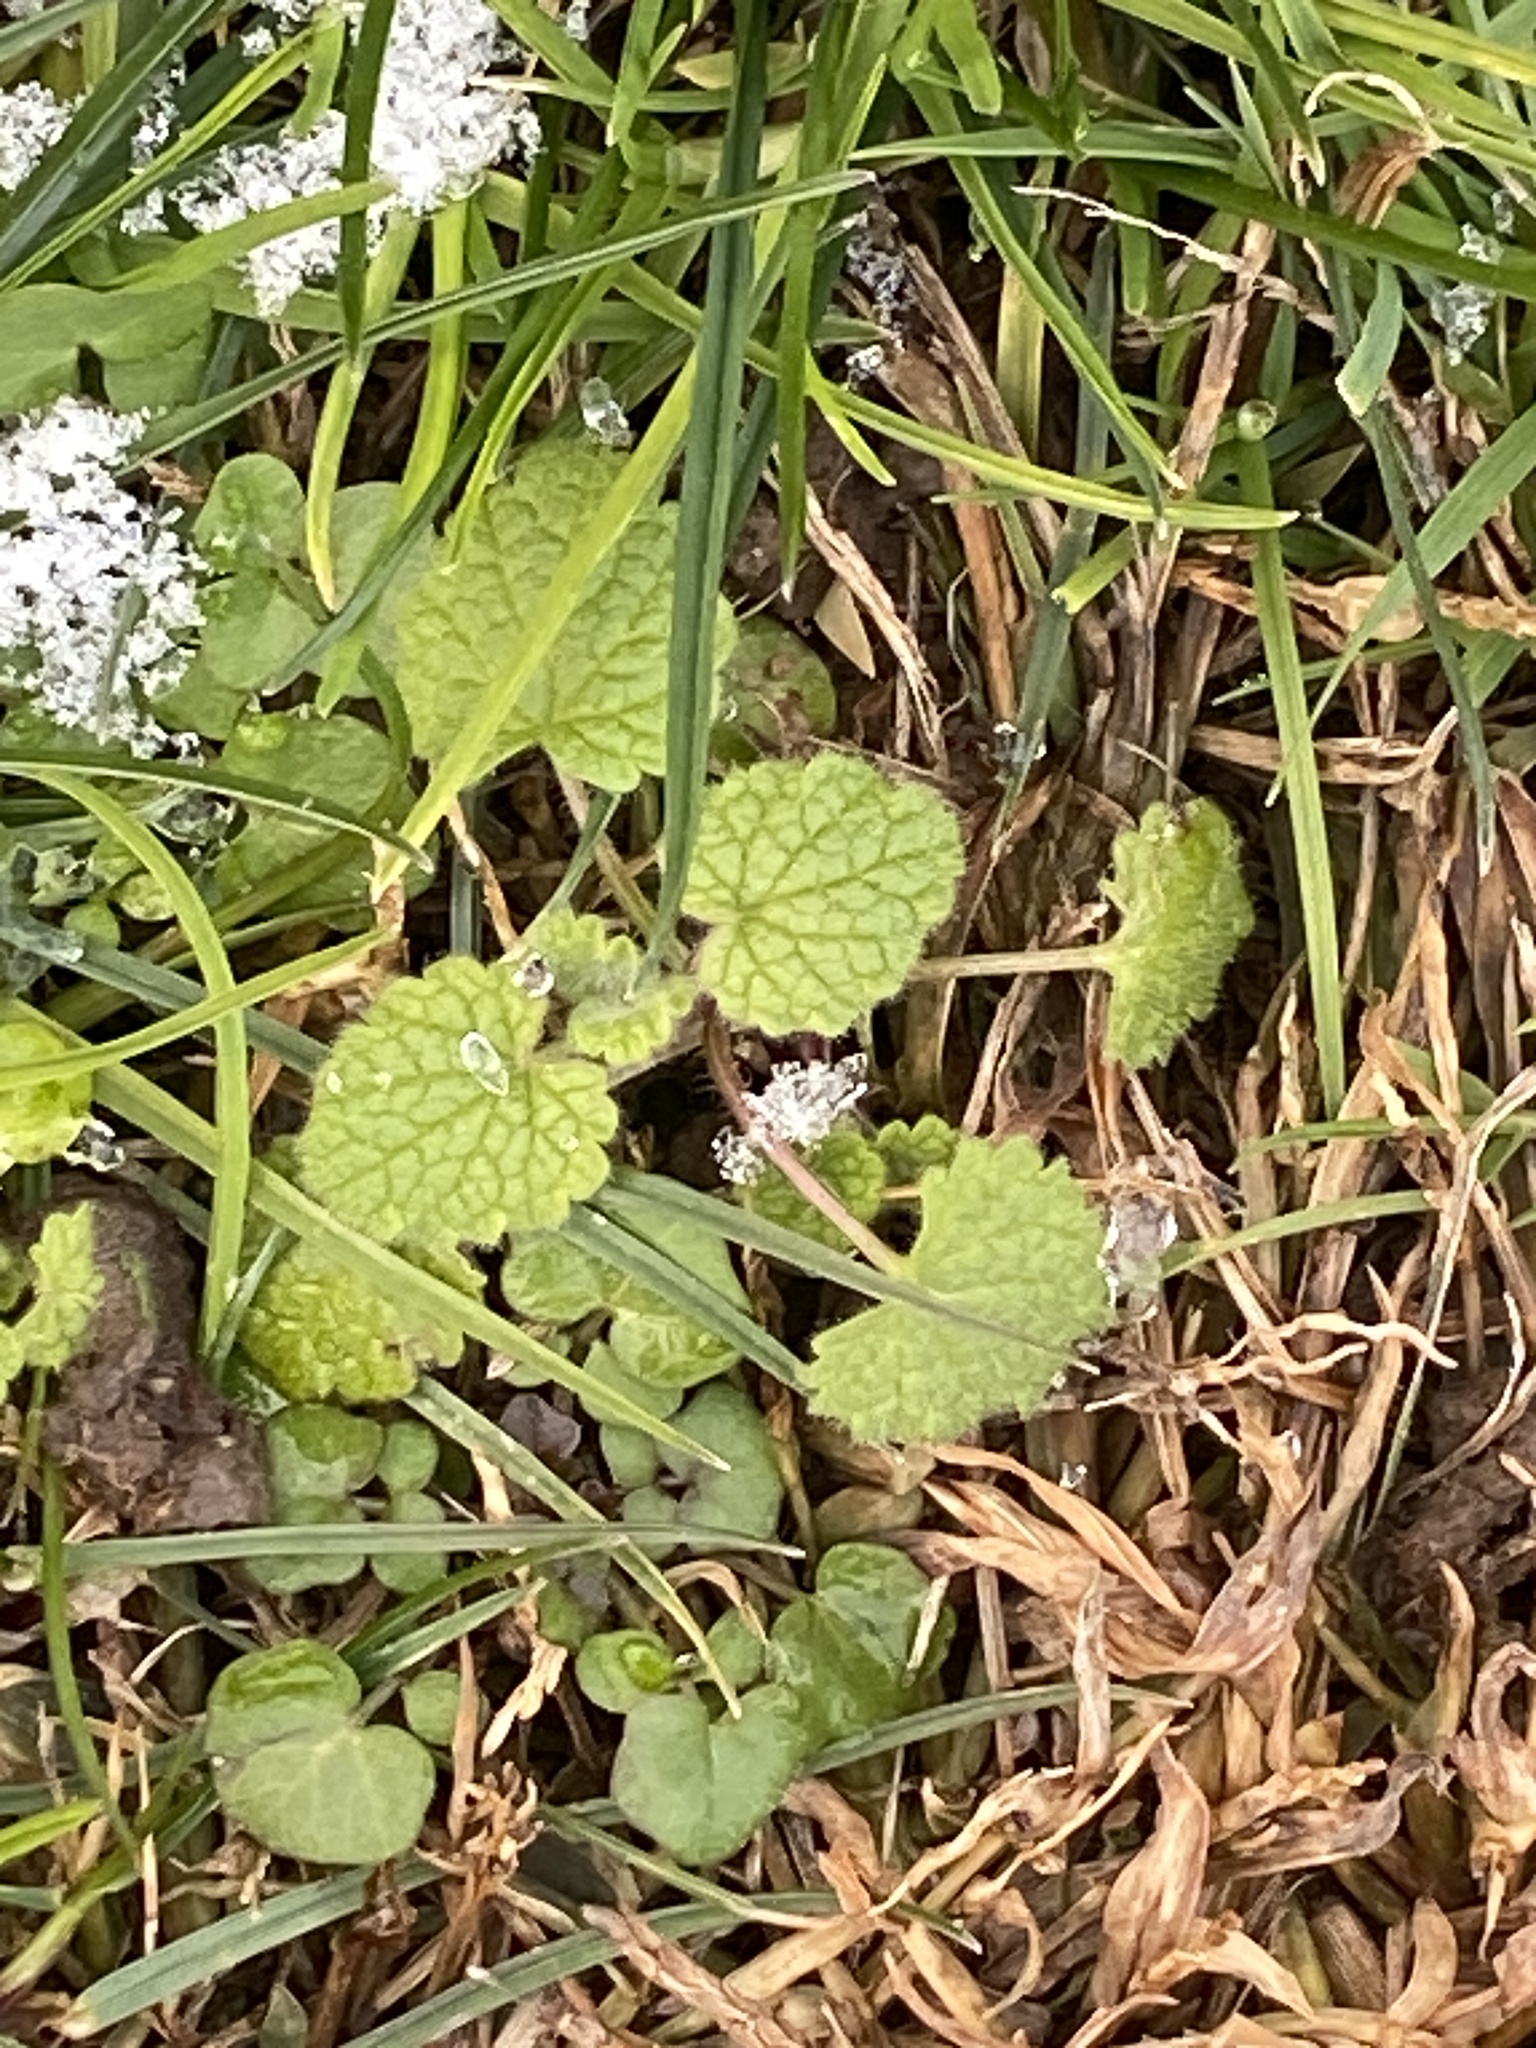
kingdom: Plantae
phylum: Tracheophyta
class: Magnoliopsida
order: Lamiales
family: Lamiaceae
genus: Lamium
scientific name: Lamium purpureum
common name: Red dead-nettle
